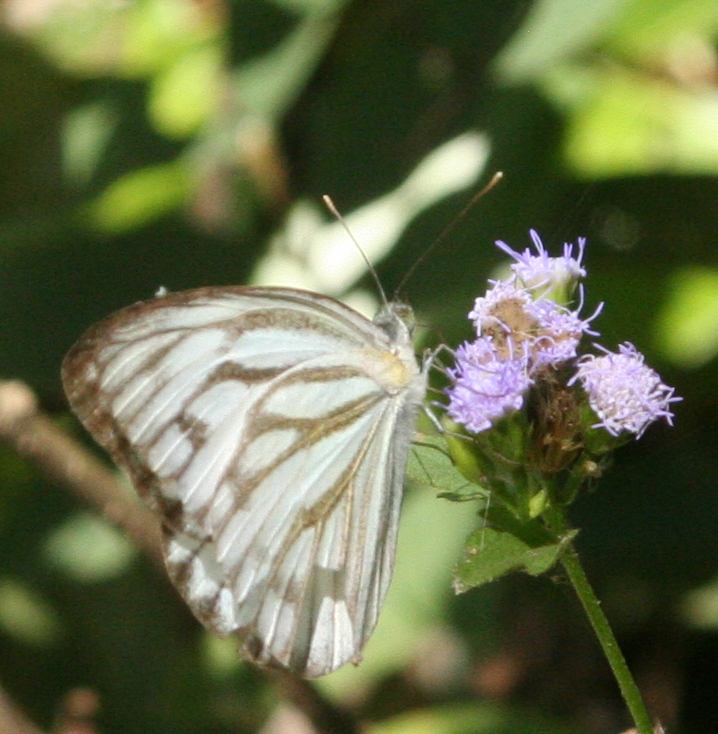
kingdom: Plantae
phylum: Tracheophyta
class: Magnoliopsida
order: Asterales
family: Asteraceae
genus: Chromolaena
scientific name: Chromolaena odorata
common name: Siamweed
